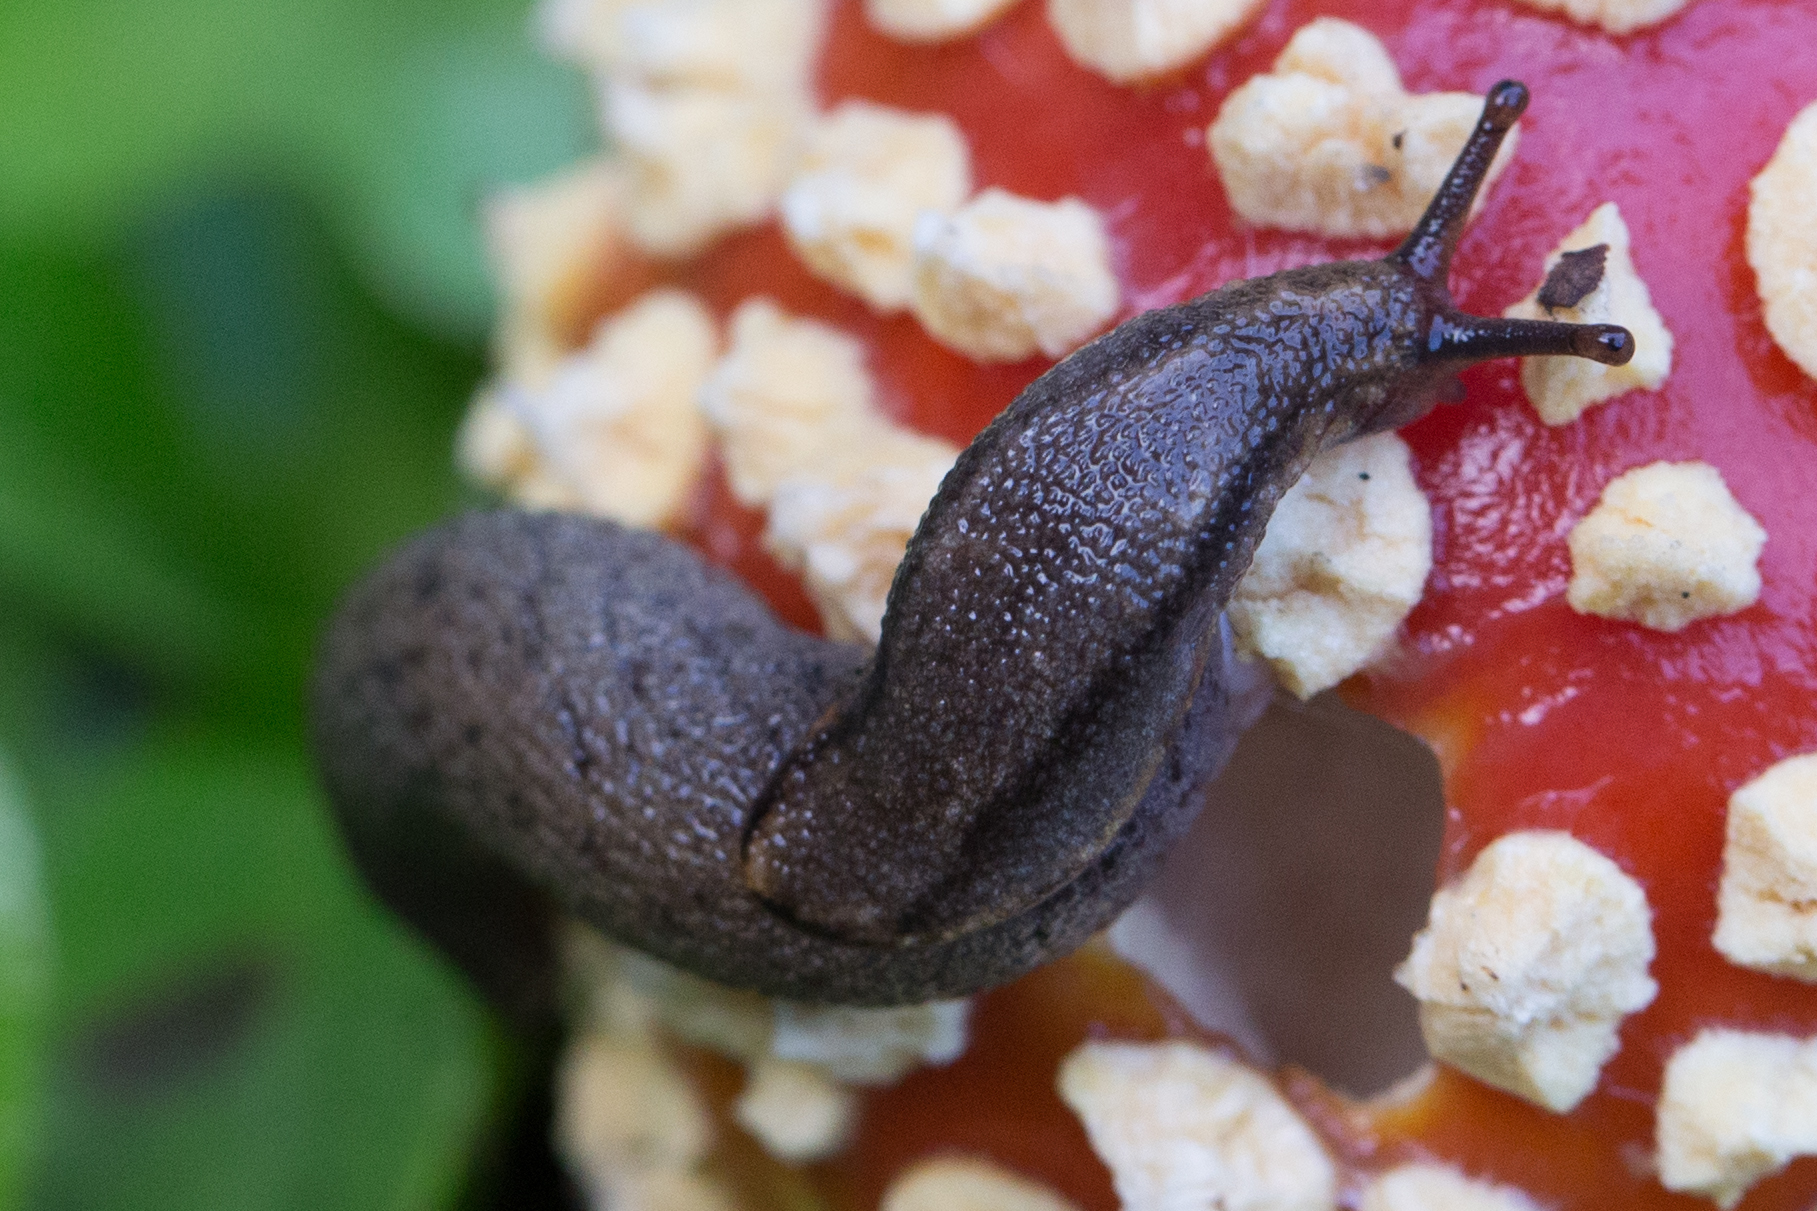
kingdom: Animalia
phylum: Mollusca
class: Gastropoda
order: Stylommatophora
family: Ariolimacidae
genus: Prophysaon
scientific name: Prophysaon andersonii
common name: Reticulate taildropper
